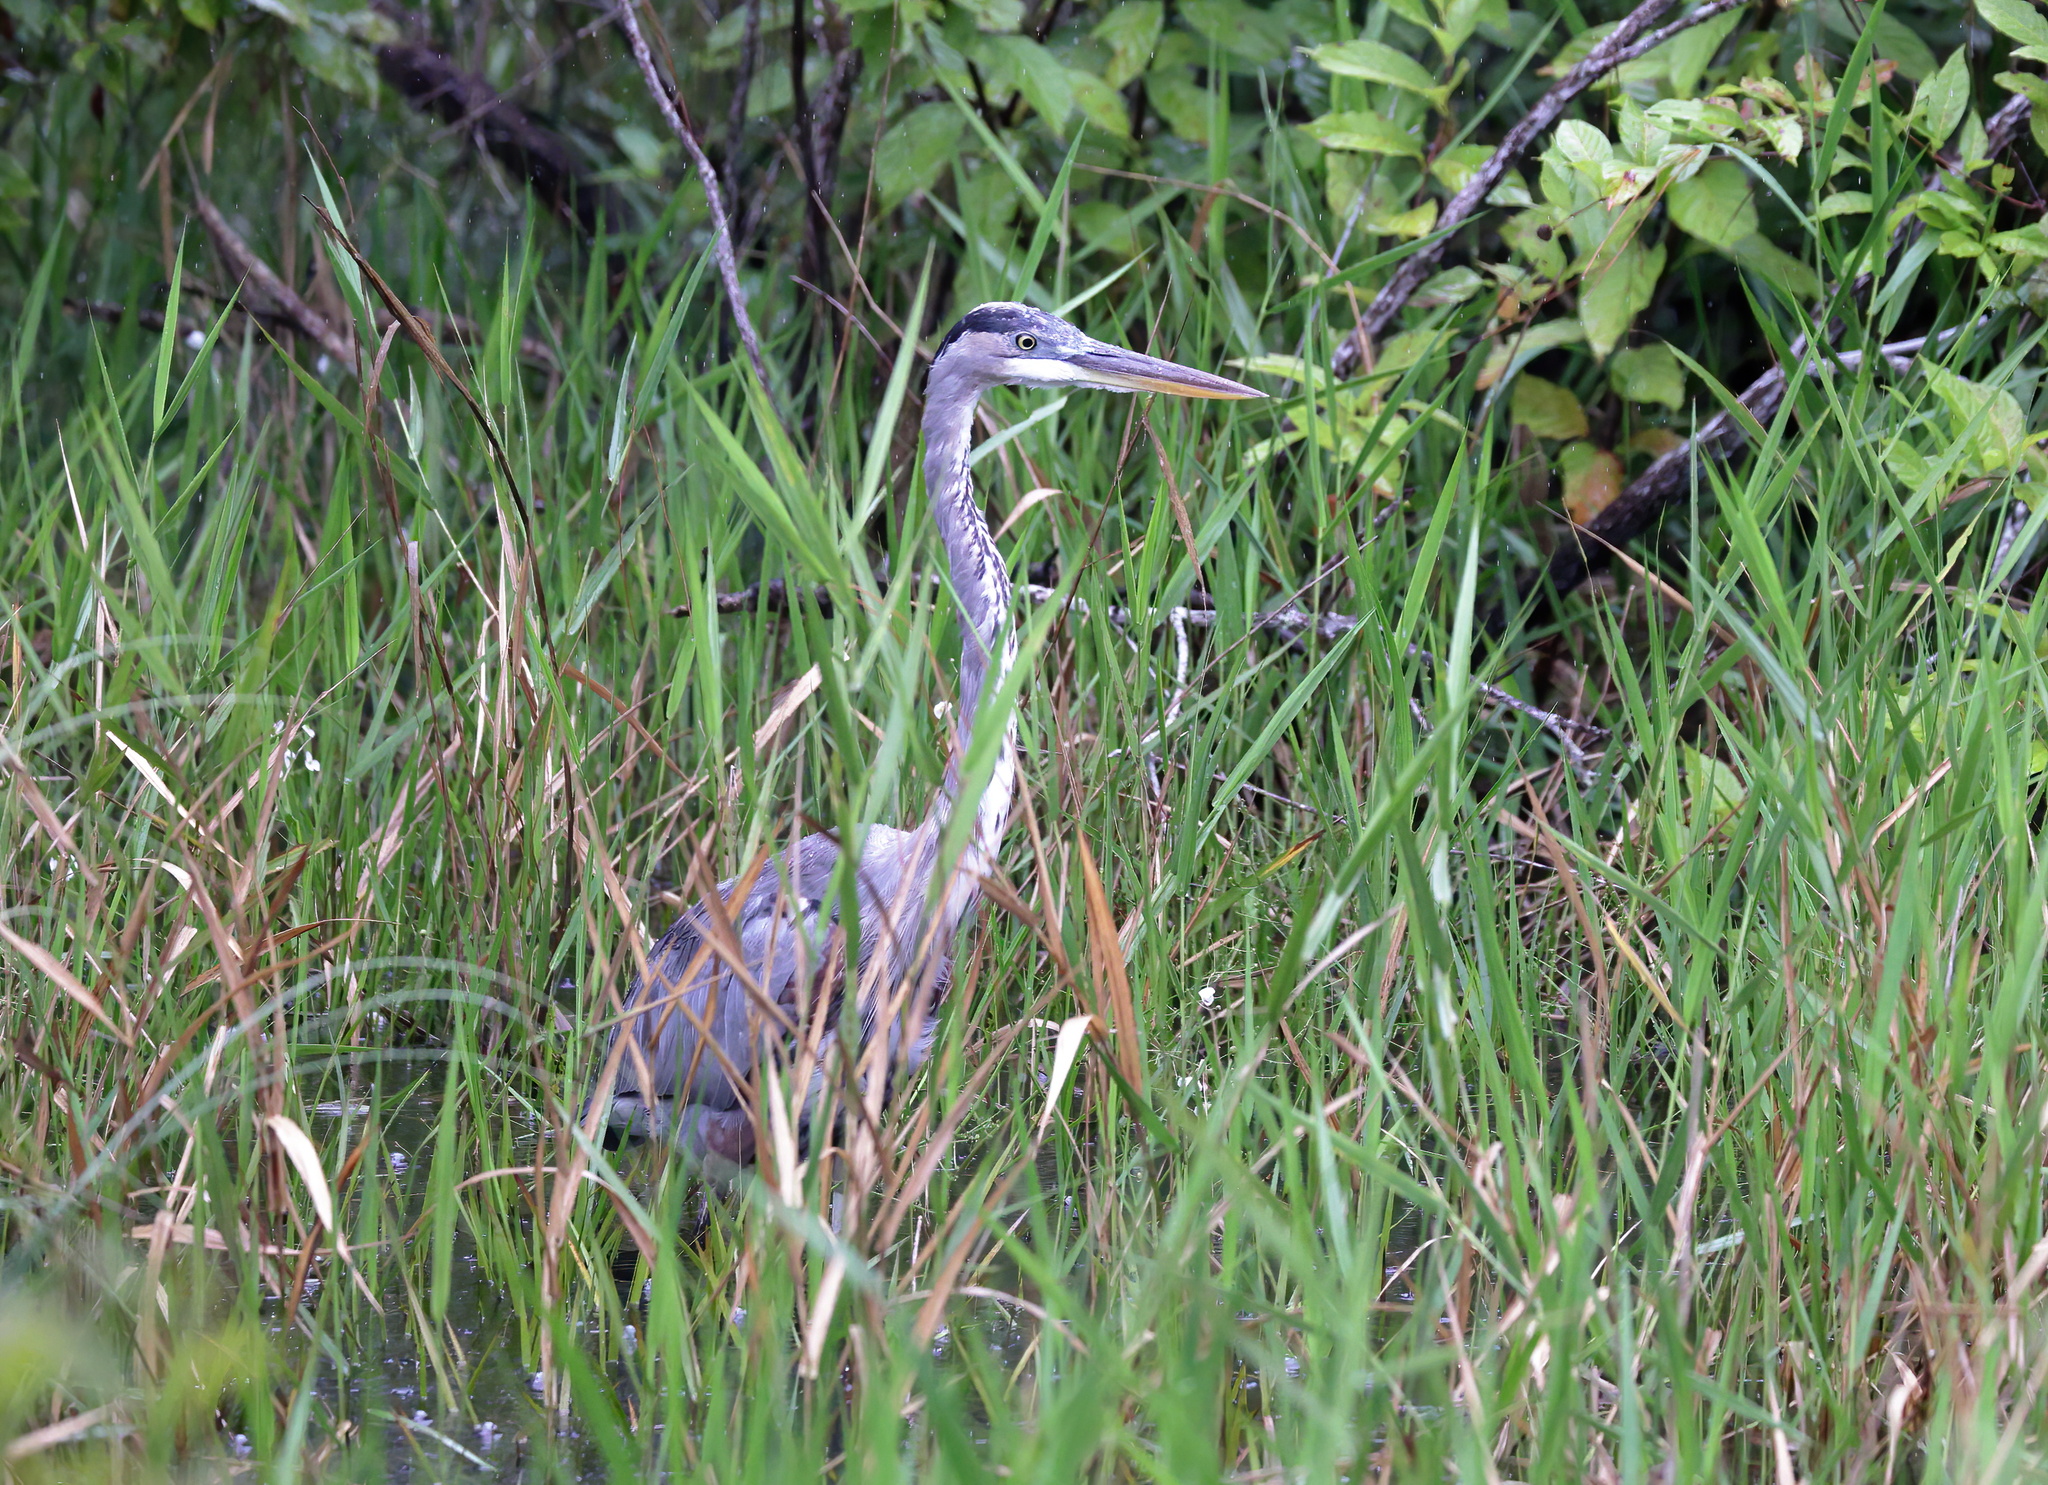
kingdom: Animalia
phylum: Chordata
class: Aves
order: Pelecaniformes
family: Ardeidae
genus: Ardea
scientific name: Ardea herodias
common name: Great blue heron
